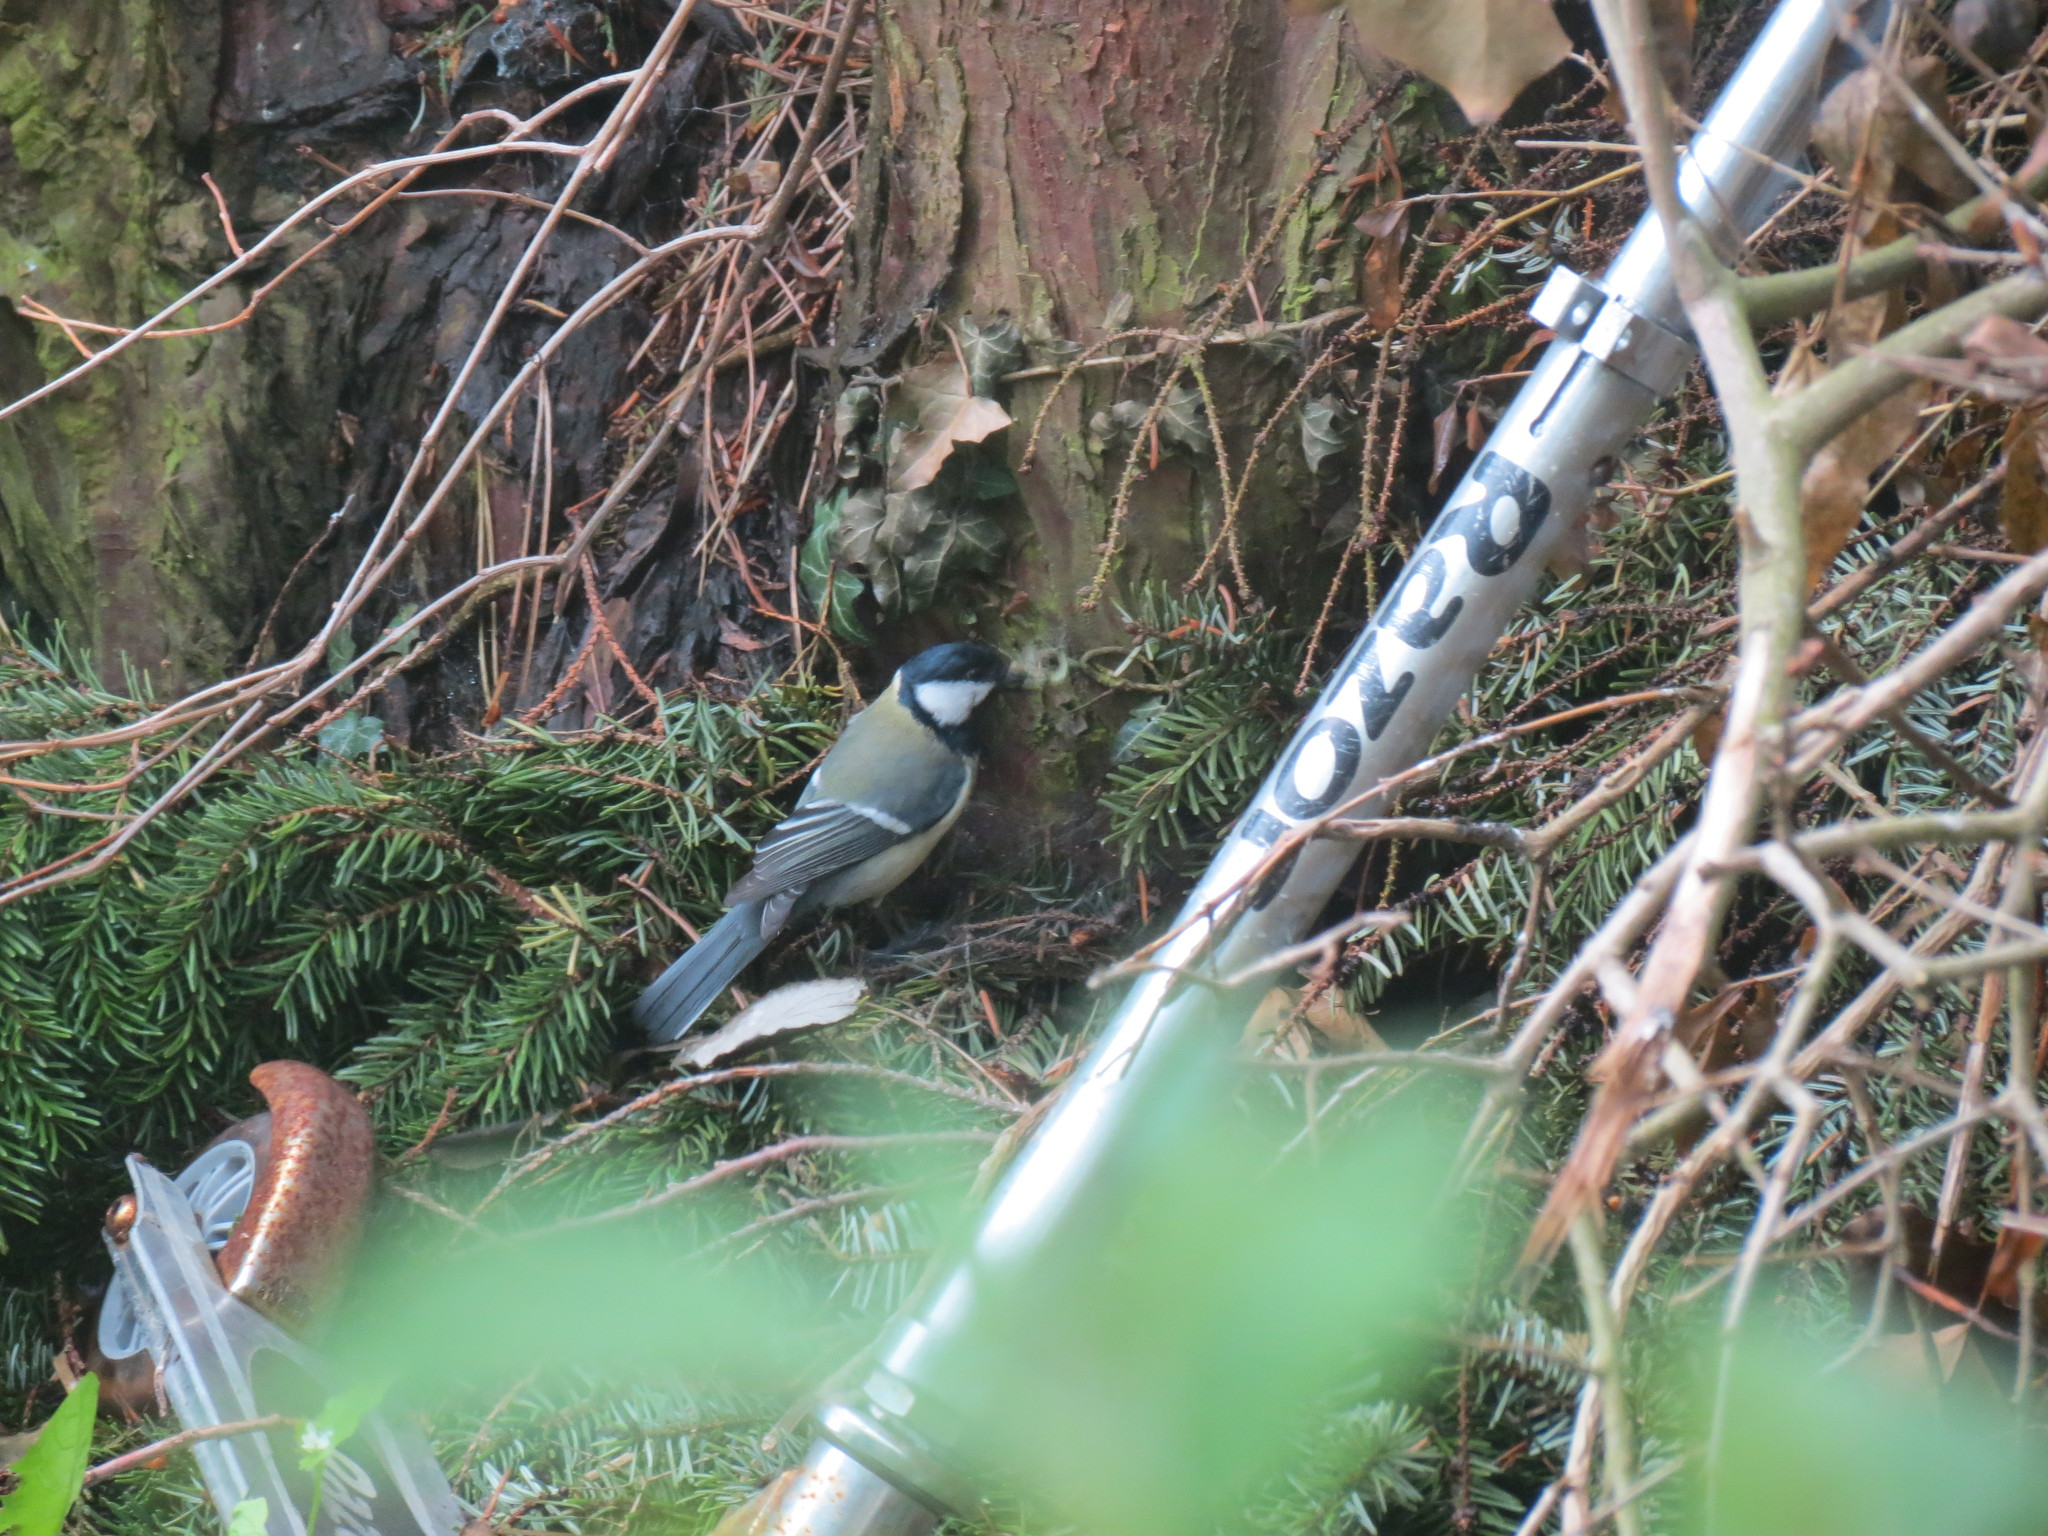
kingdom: Animalia
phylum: Chordata
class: Aves
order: Passeriformes
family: Paridae
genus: Parus
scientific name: Parus major
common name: Great tit
